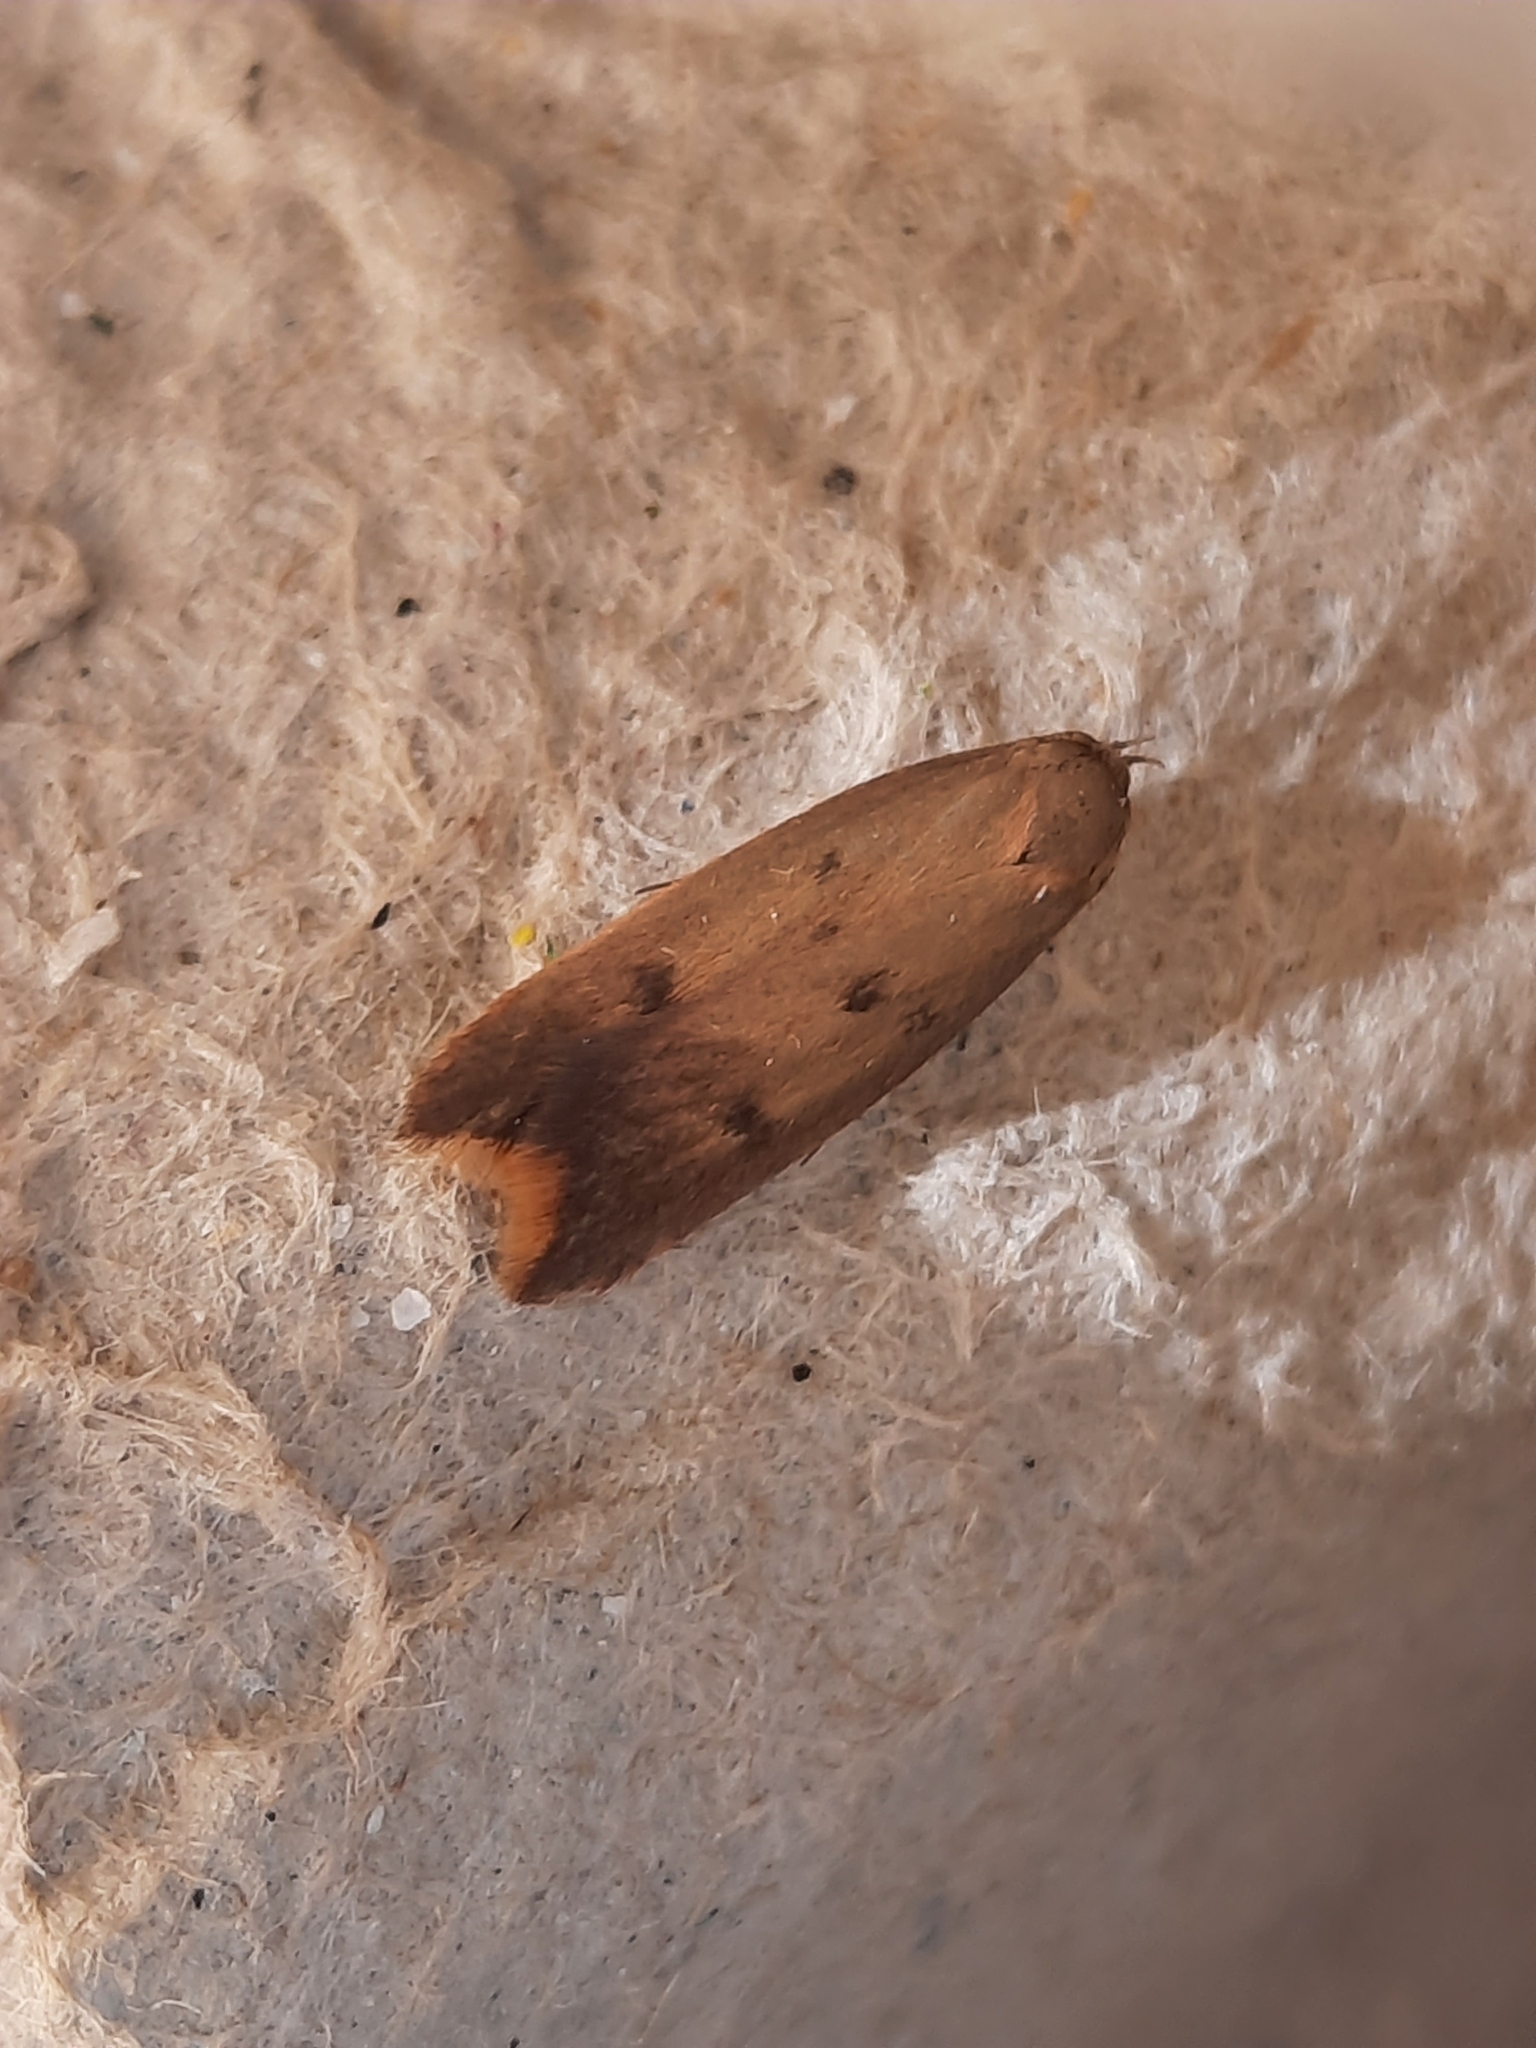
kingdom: Animalia
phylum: Arthropoda
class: Insecta
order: Lepidoptera
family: Oecophoridae
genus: Tachystola
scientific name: Tachystola acroxantha
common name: Ruddy streak
